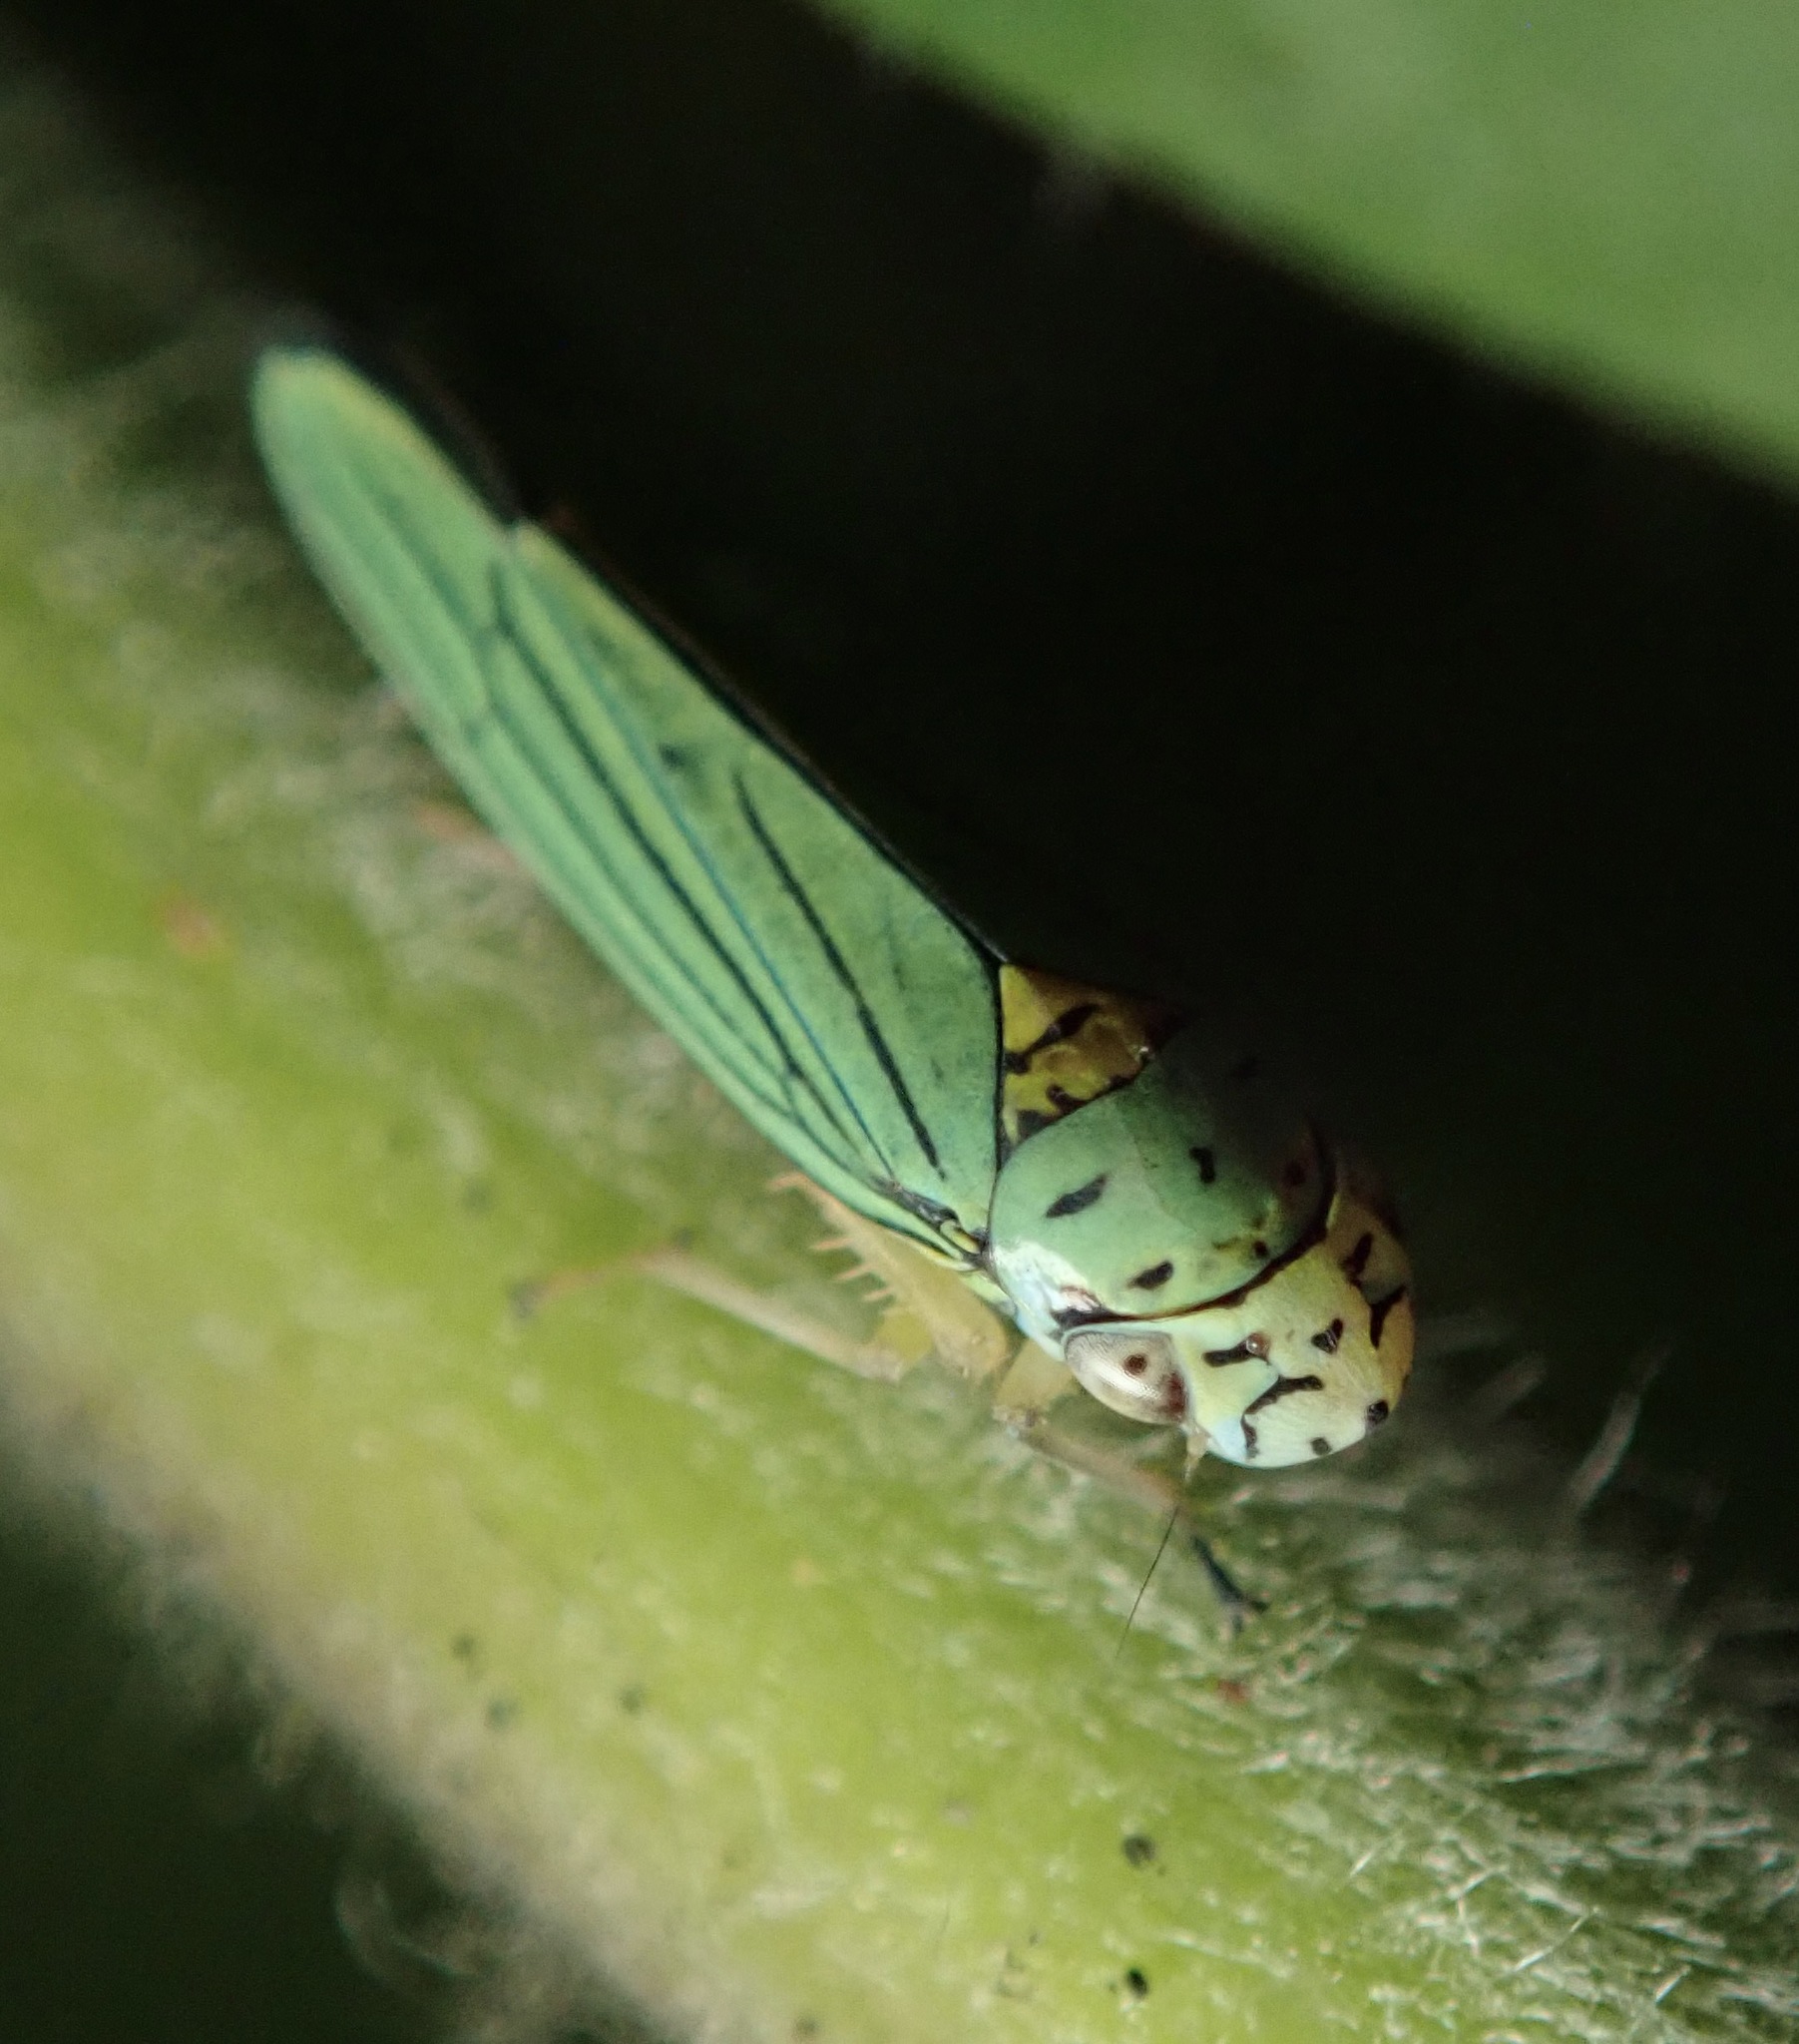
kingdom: Animalia
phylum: Arthropoda
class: Insecta
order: Hemiptera
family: Cicadellidae
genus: Graphocephala
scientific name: Graphocephala atropunctata
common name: Blue-green sharpshooter
